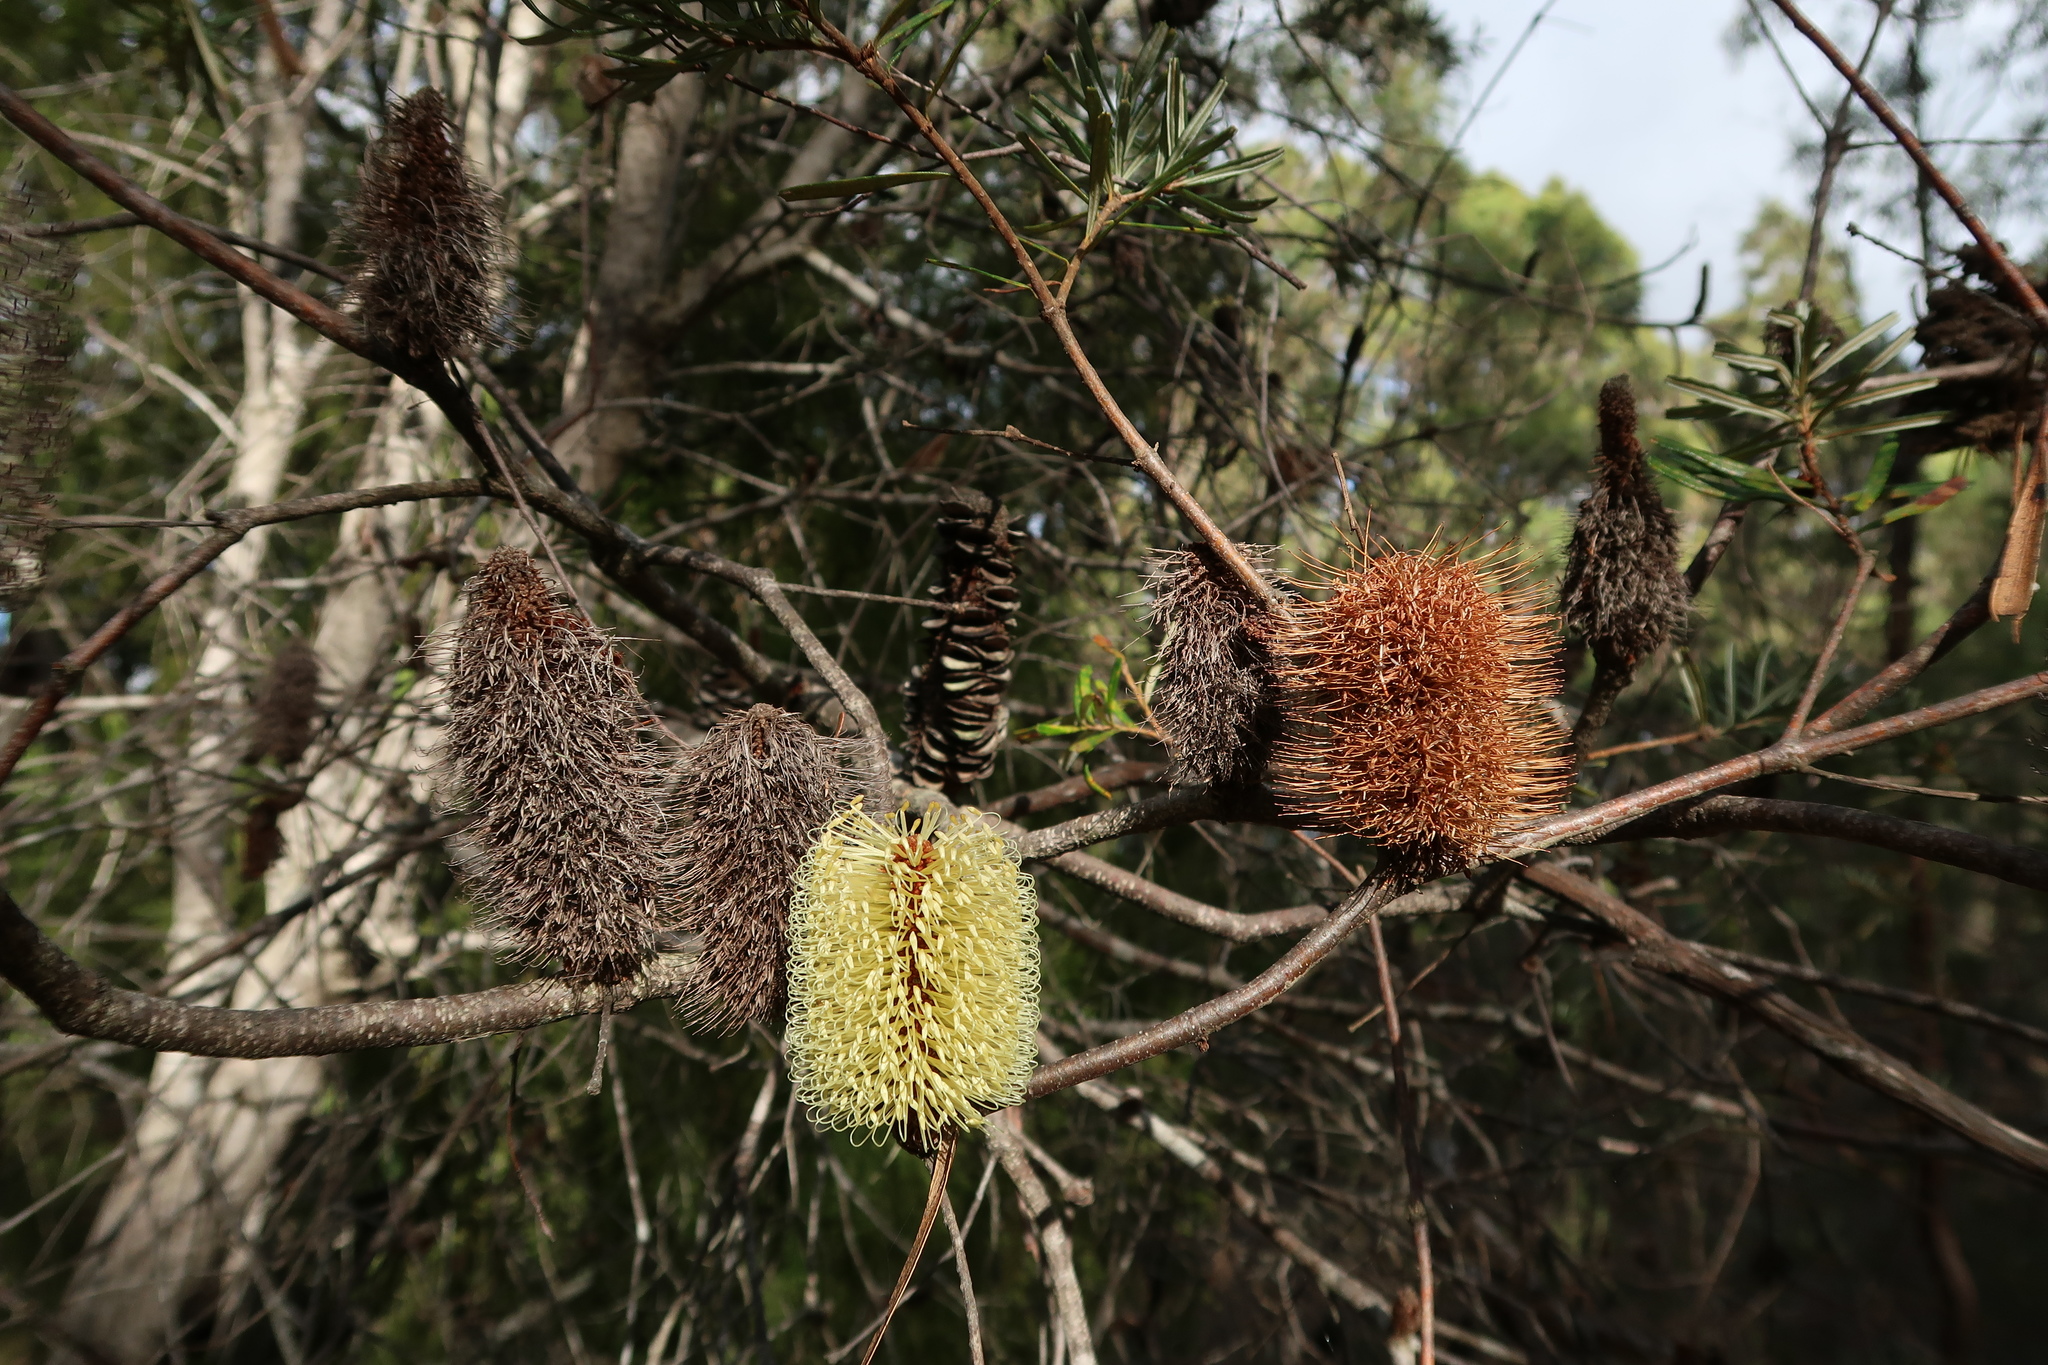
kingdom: Plantae
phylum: Tracheophyta
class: Magnoliopsida
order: Proteales
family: Proteaceae
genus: Banksia
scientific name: Banksia marginata
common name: Silver banksia
